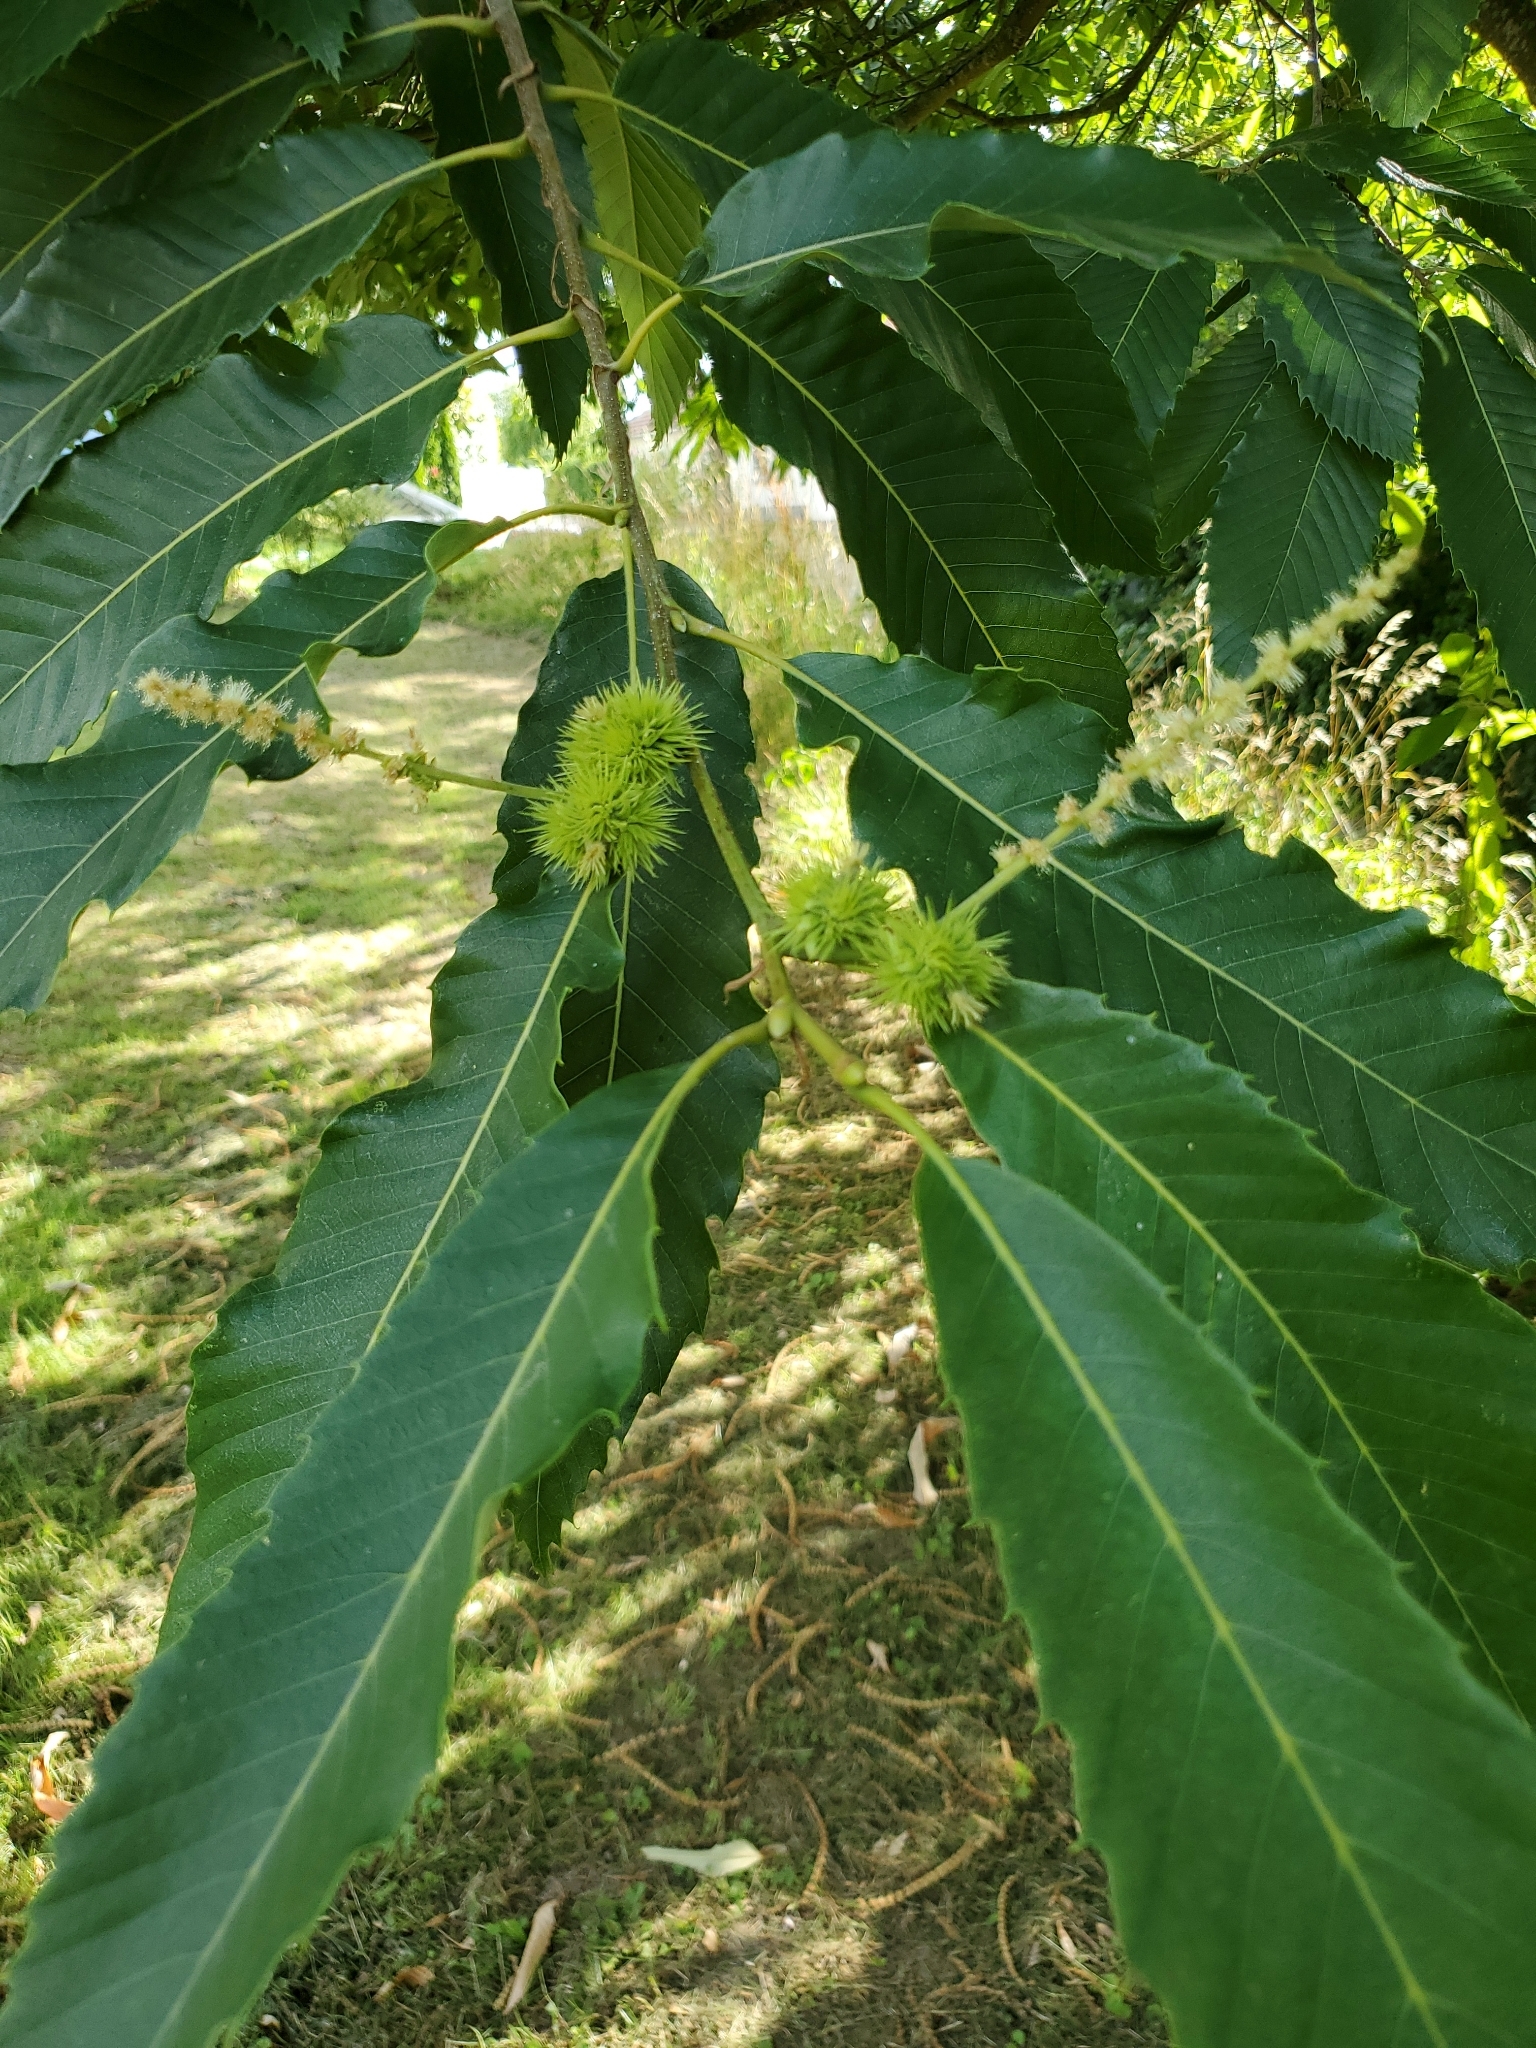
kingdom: Plantae
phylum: Tracheophyta
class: Magnoliopsida
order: Fagales
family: Fagaceae
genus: Castanea
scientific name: Castanea sativa
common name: Sweet chestnut
